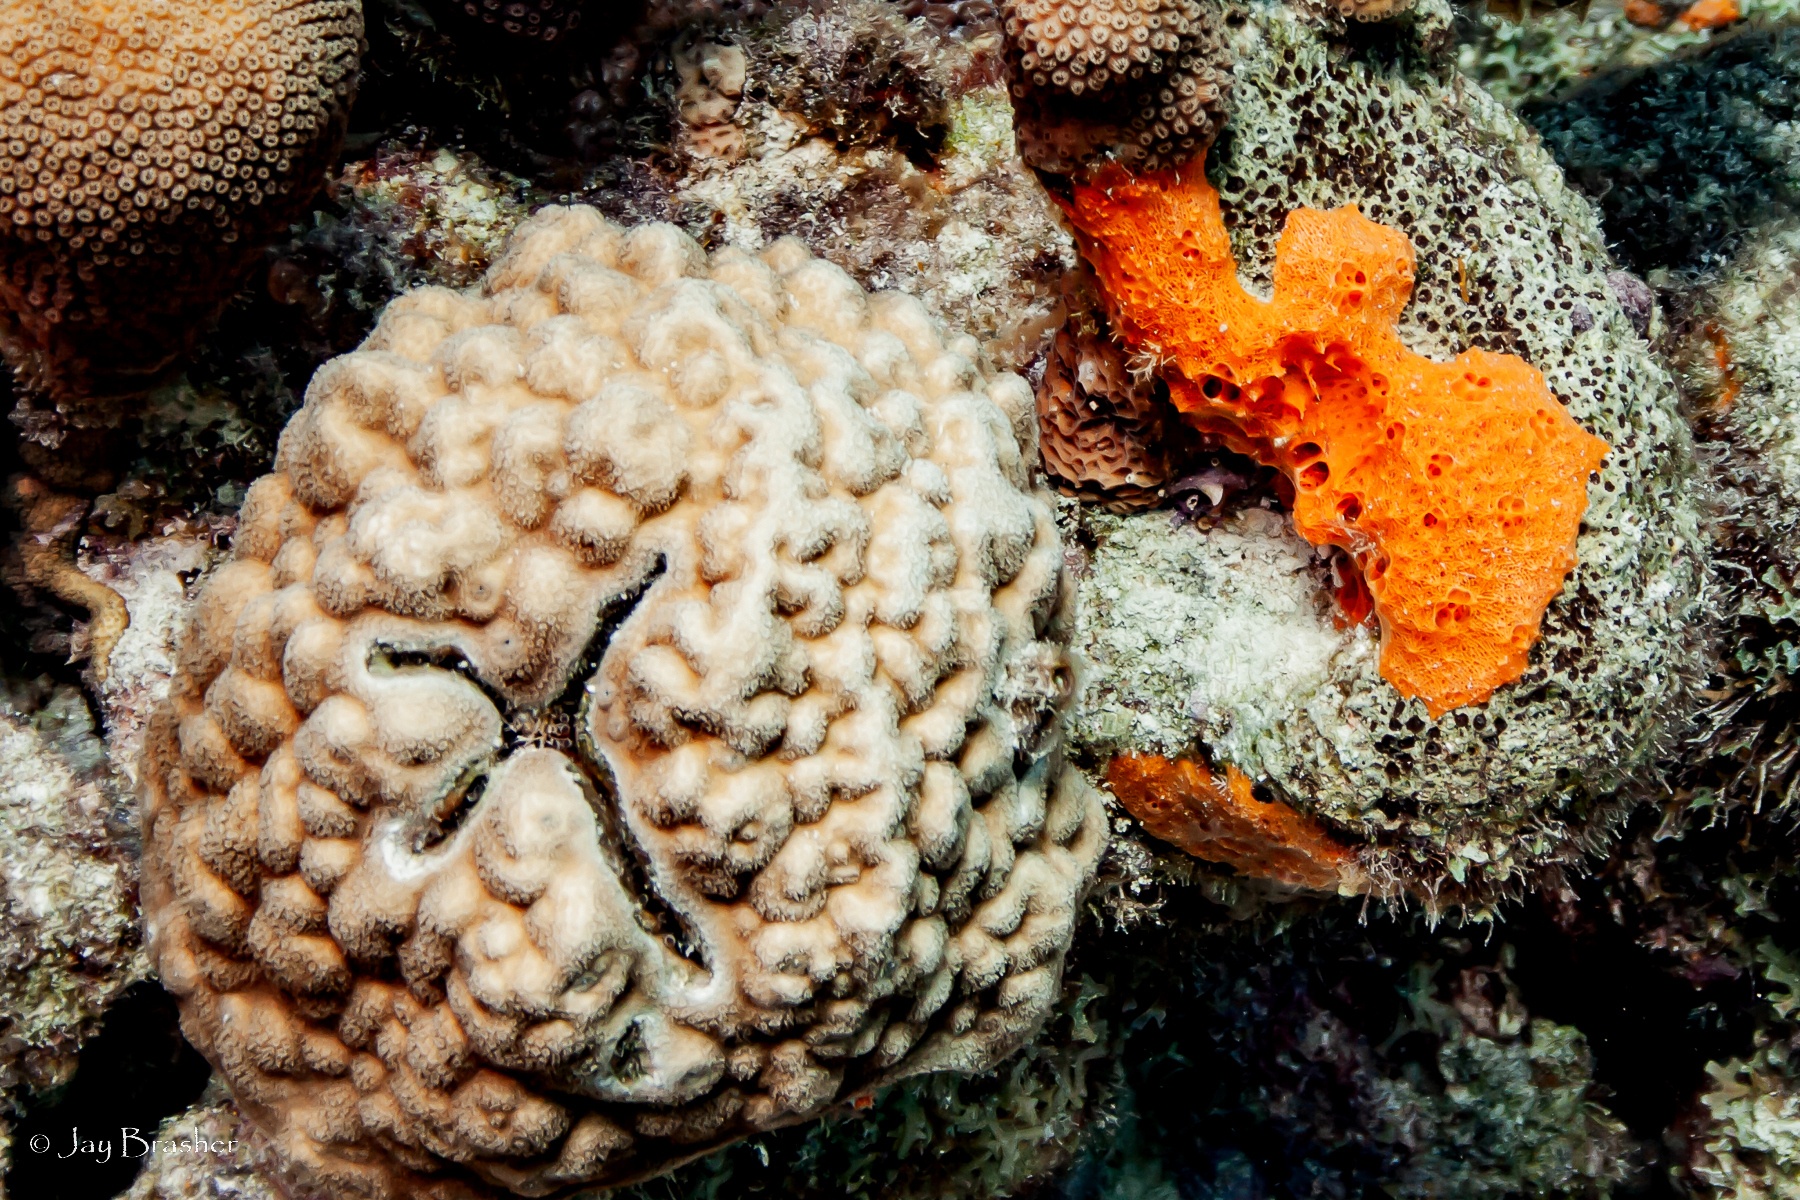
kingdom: Animalia
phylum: Cnidaria
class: Anthozoa
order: Scleractinia
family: Poritidae
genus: Porites
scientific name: Porites astreoides
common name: Mustard hill coral
